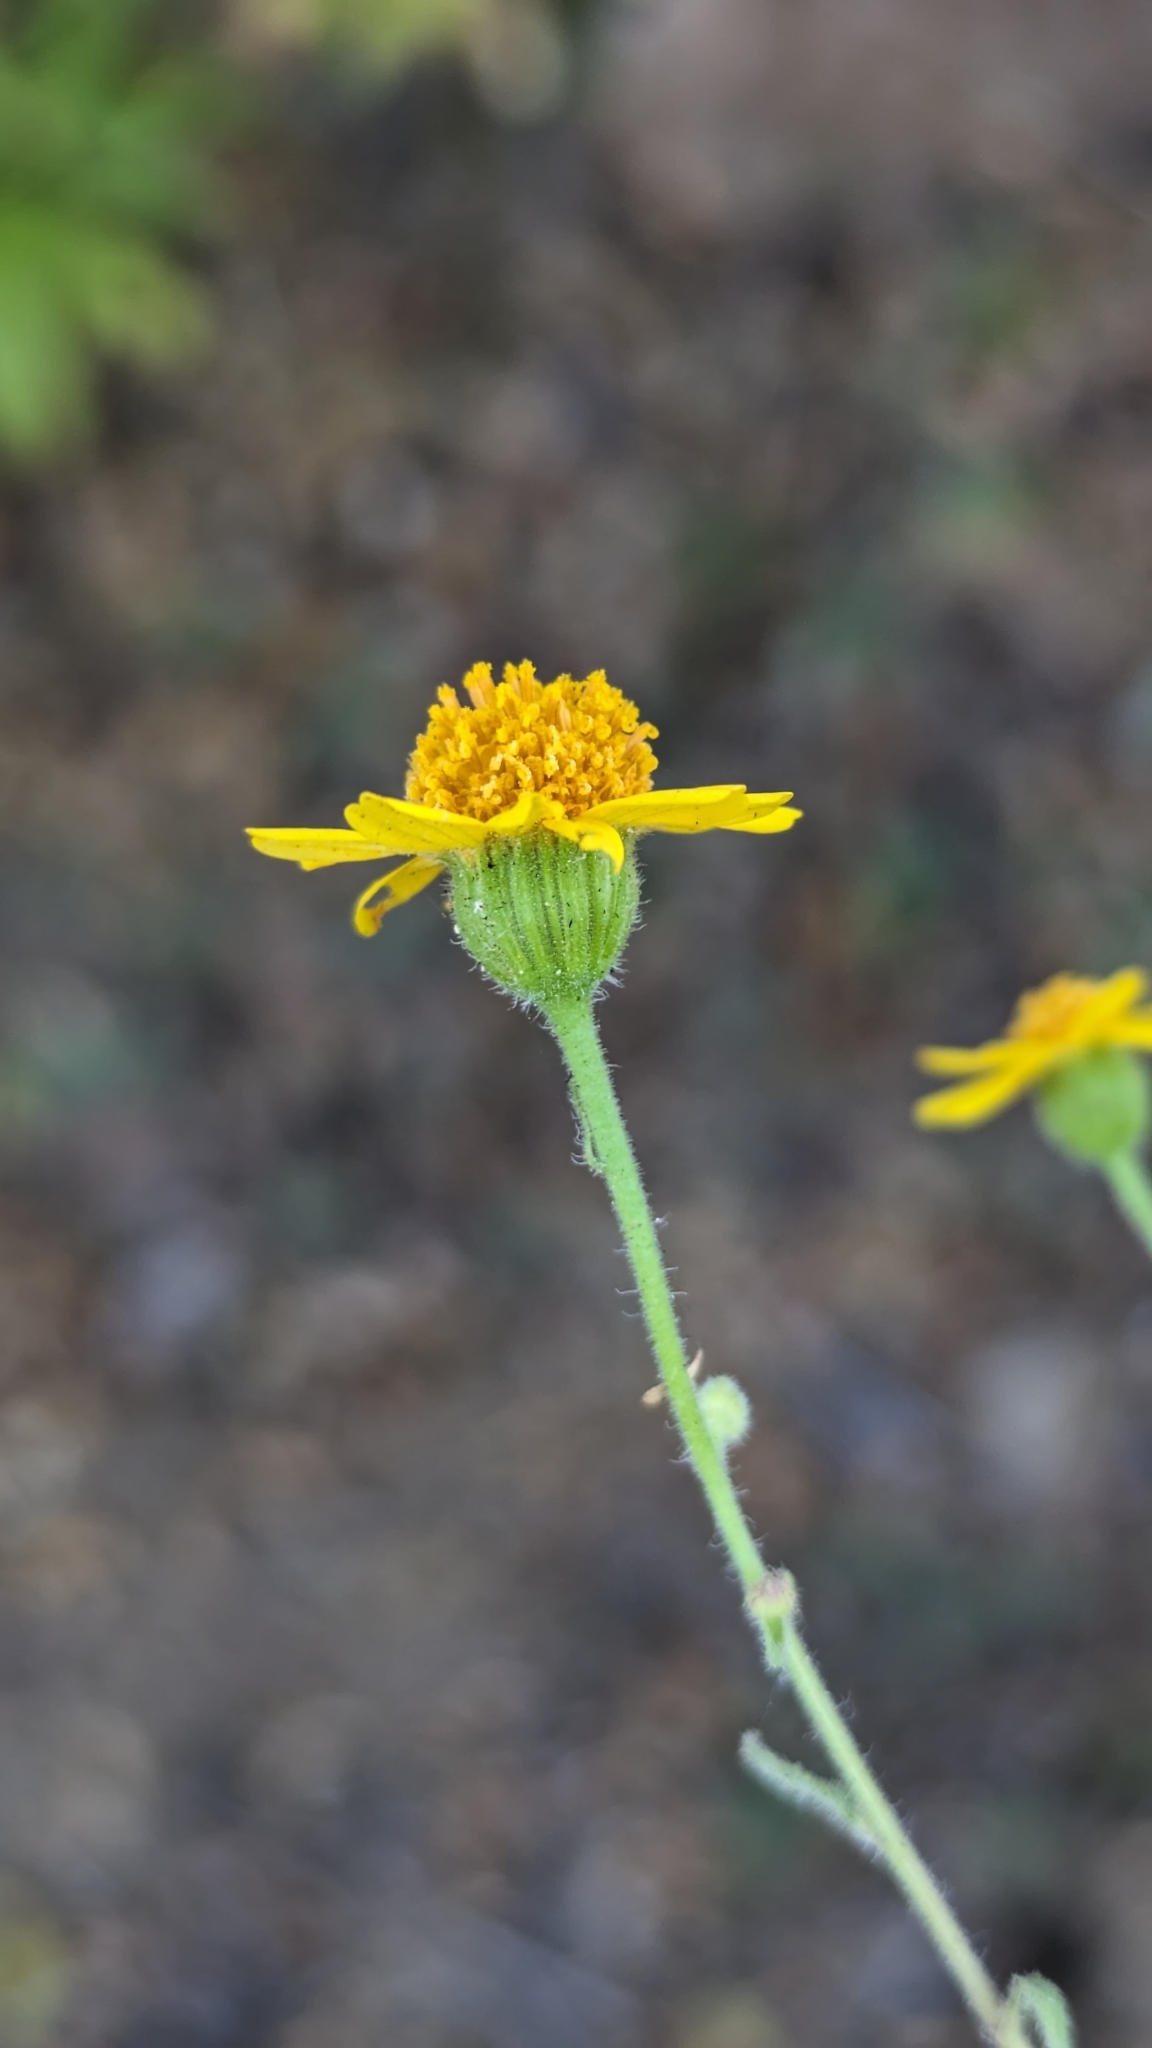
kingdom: Plantae
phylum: Tracheophyta
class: Magnoliopsida
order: Asterales
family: Asteraceae
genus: Perityle
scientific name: Perityle cuneata
